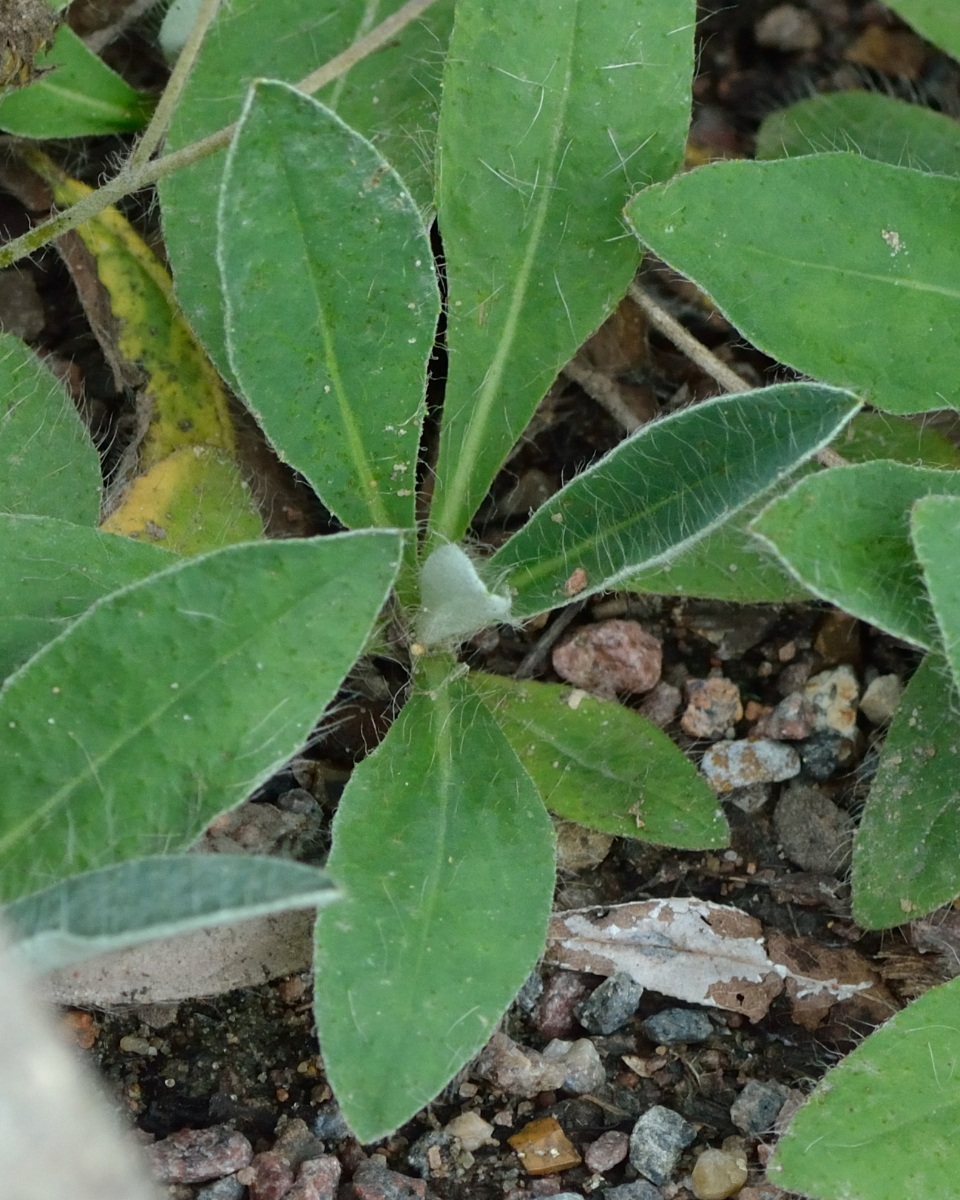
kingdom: Plantae
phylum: Tracheophyta
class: Magnoliopsida
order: Asterales
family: Asteraceae
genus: Pilosella
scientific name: Pilosella officinarum
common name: Mouse-ear hawkweed
